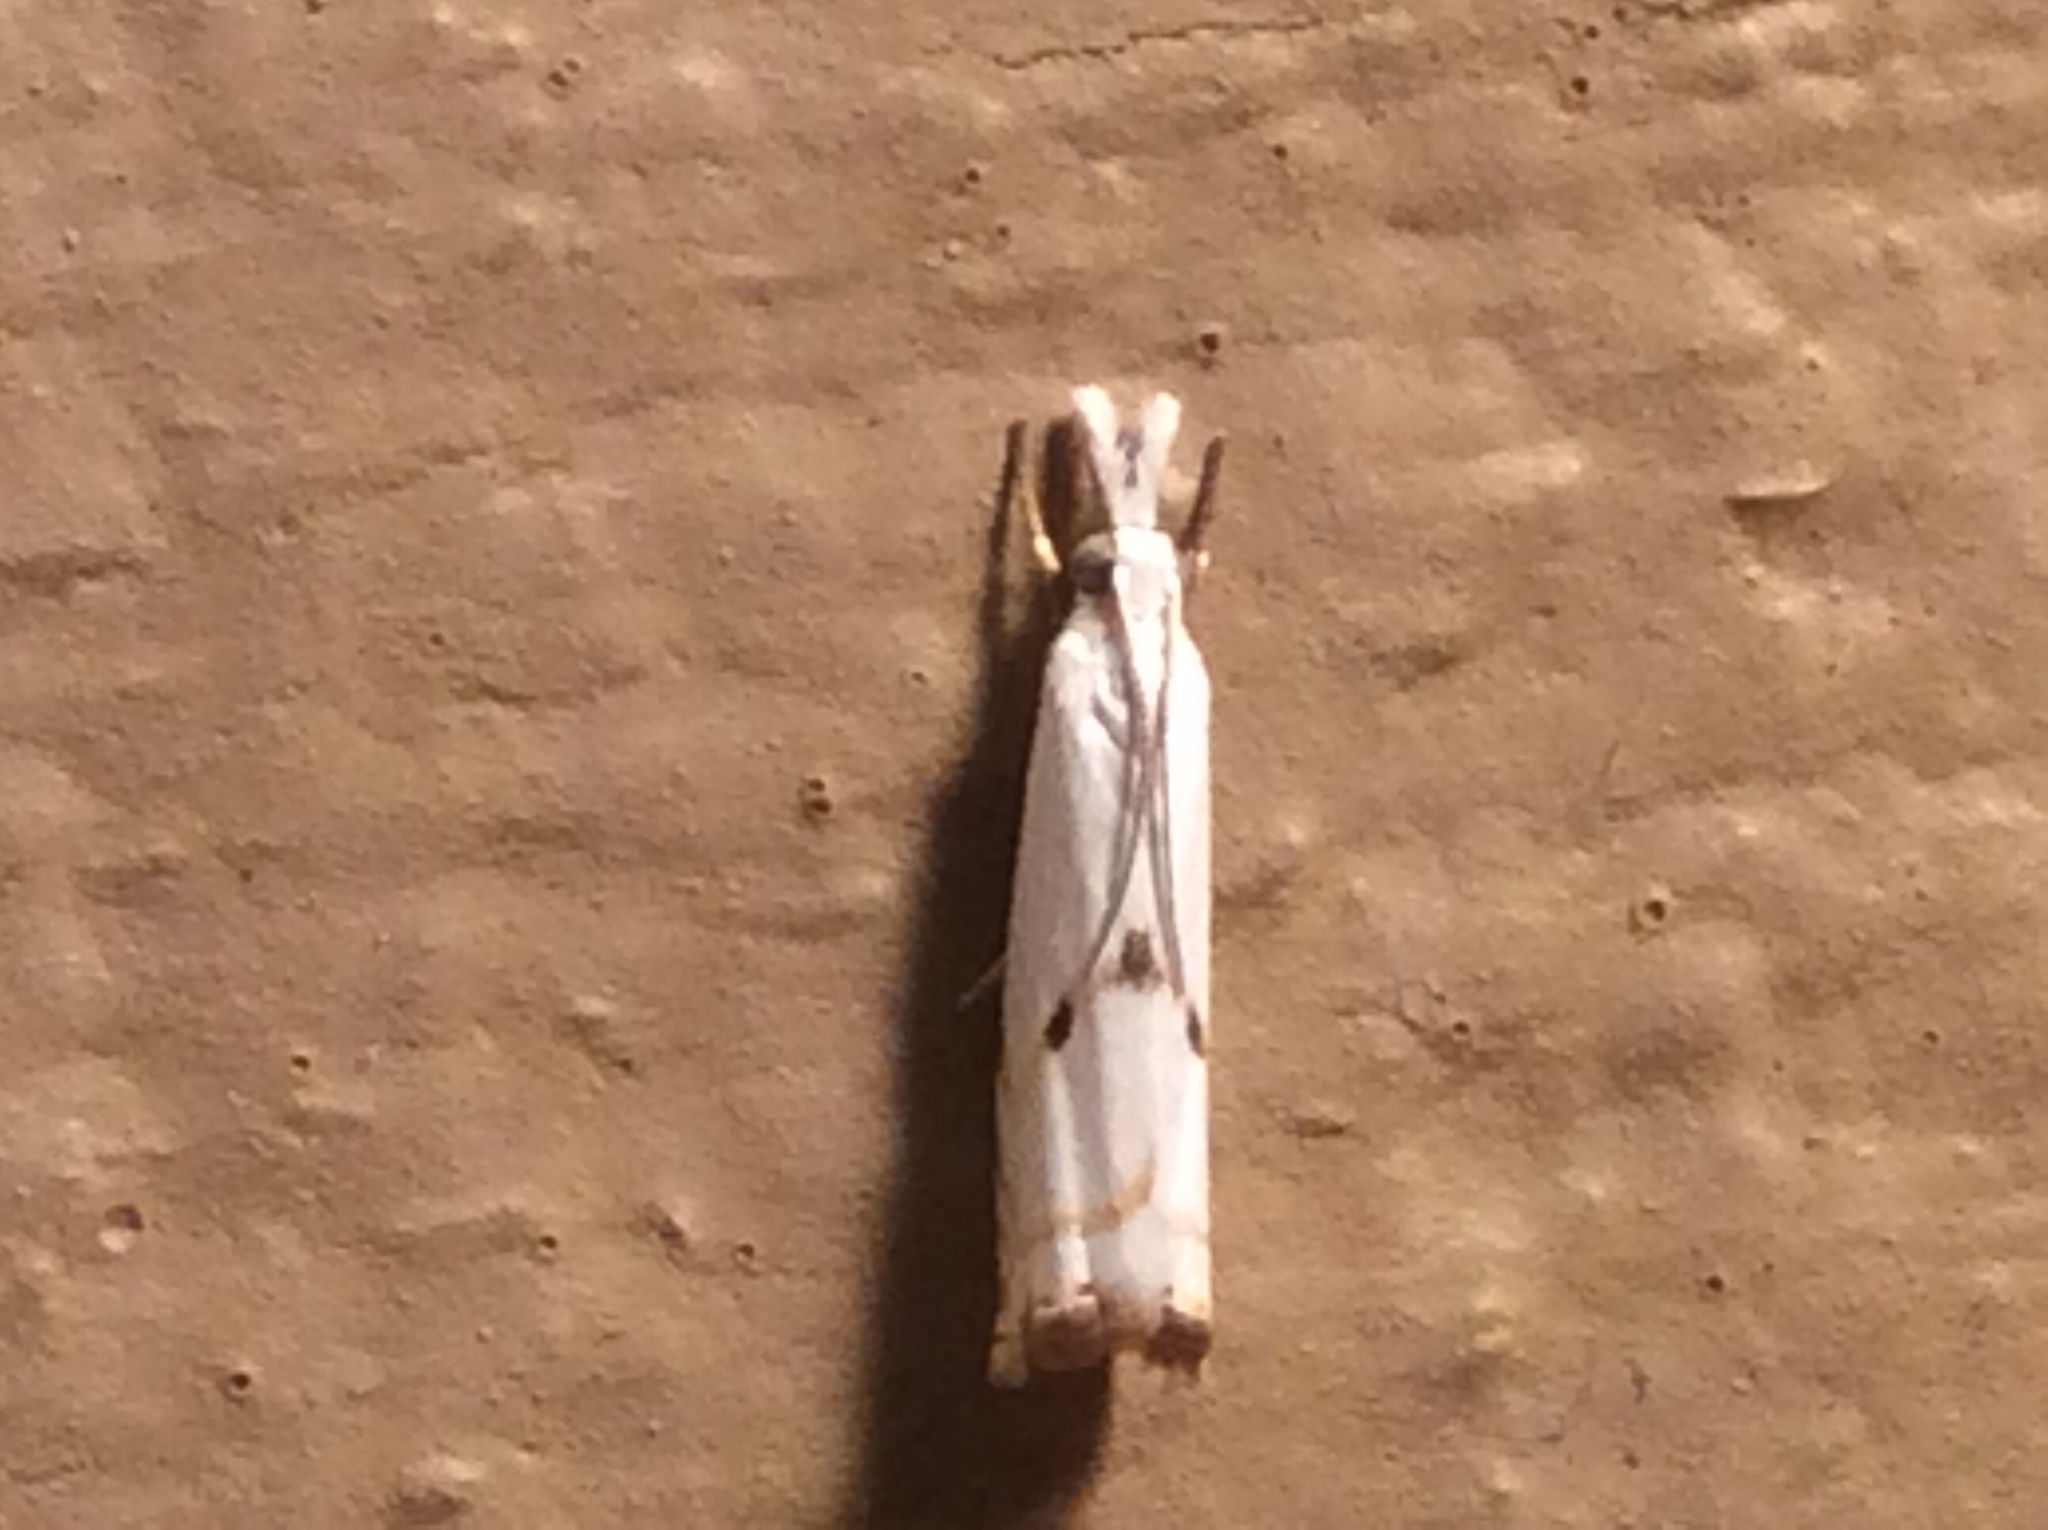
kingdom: Animalia
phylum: Arthropoda
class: Insecta
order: Lepidoptera
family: Crambidae
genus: Microcrambus
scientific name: Microcrambus biguttellus
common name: Gold-stripe grass-veneer moth
